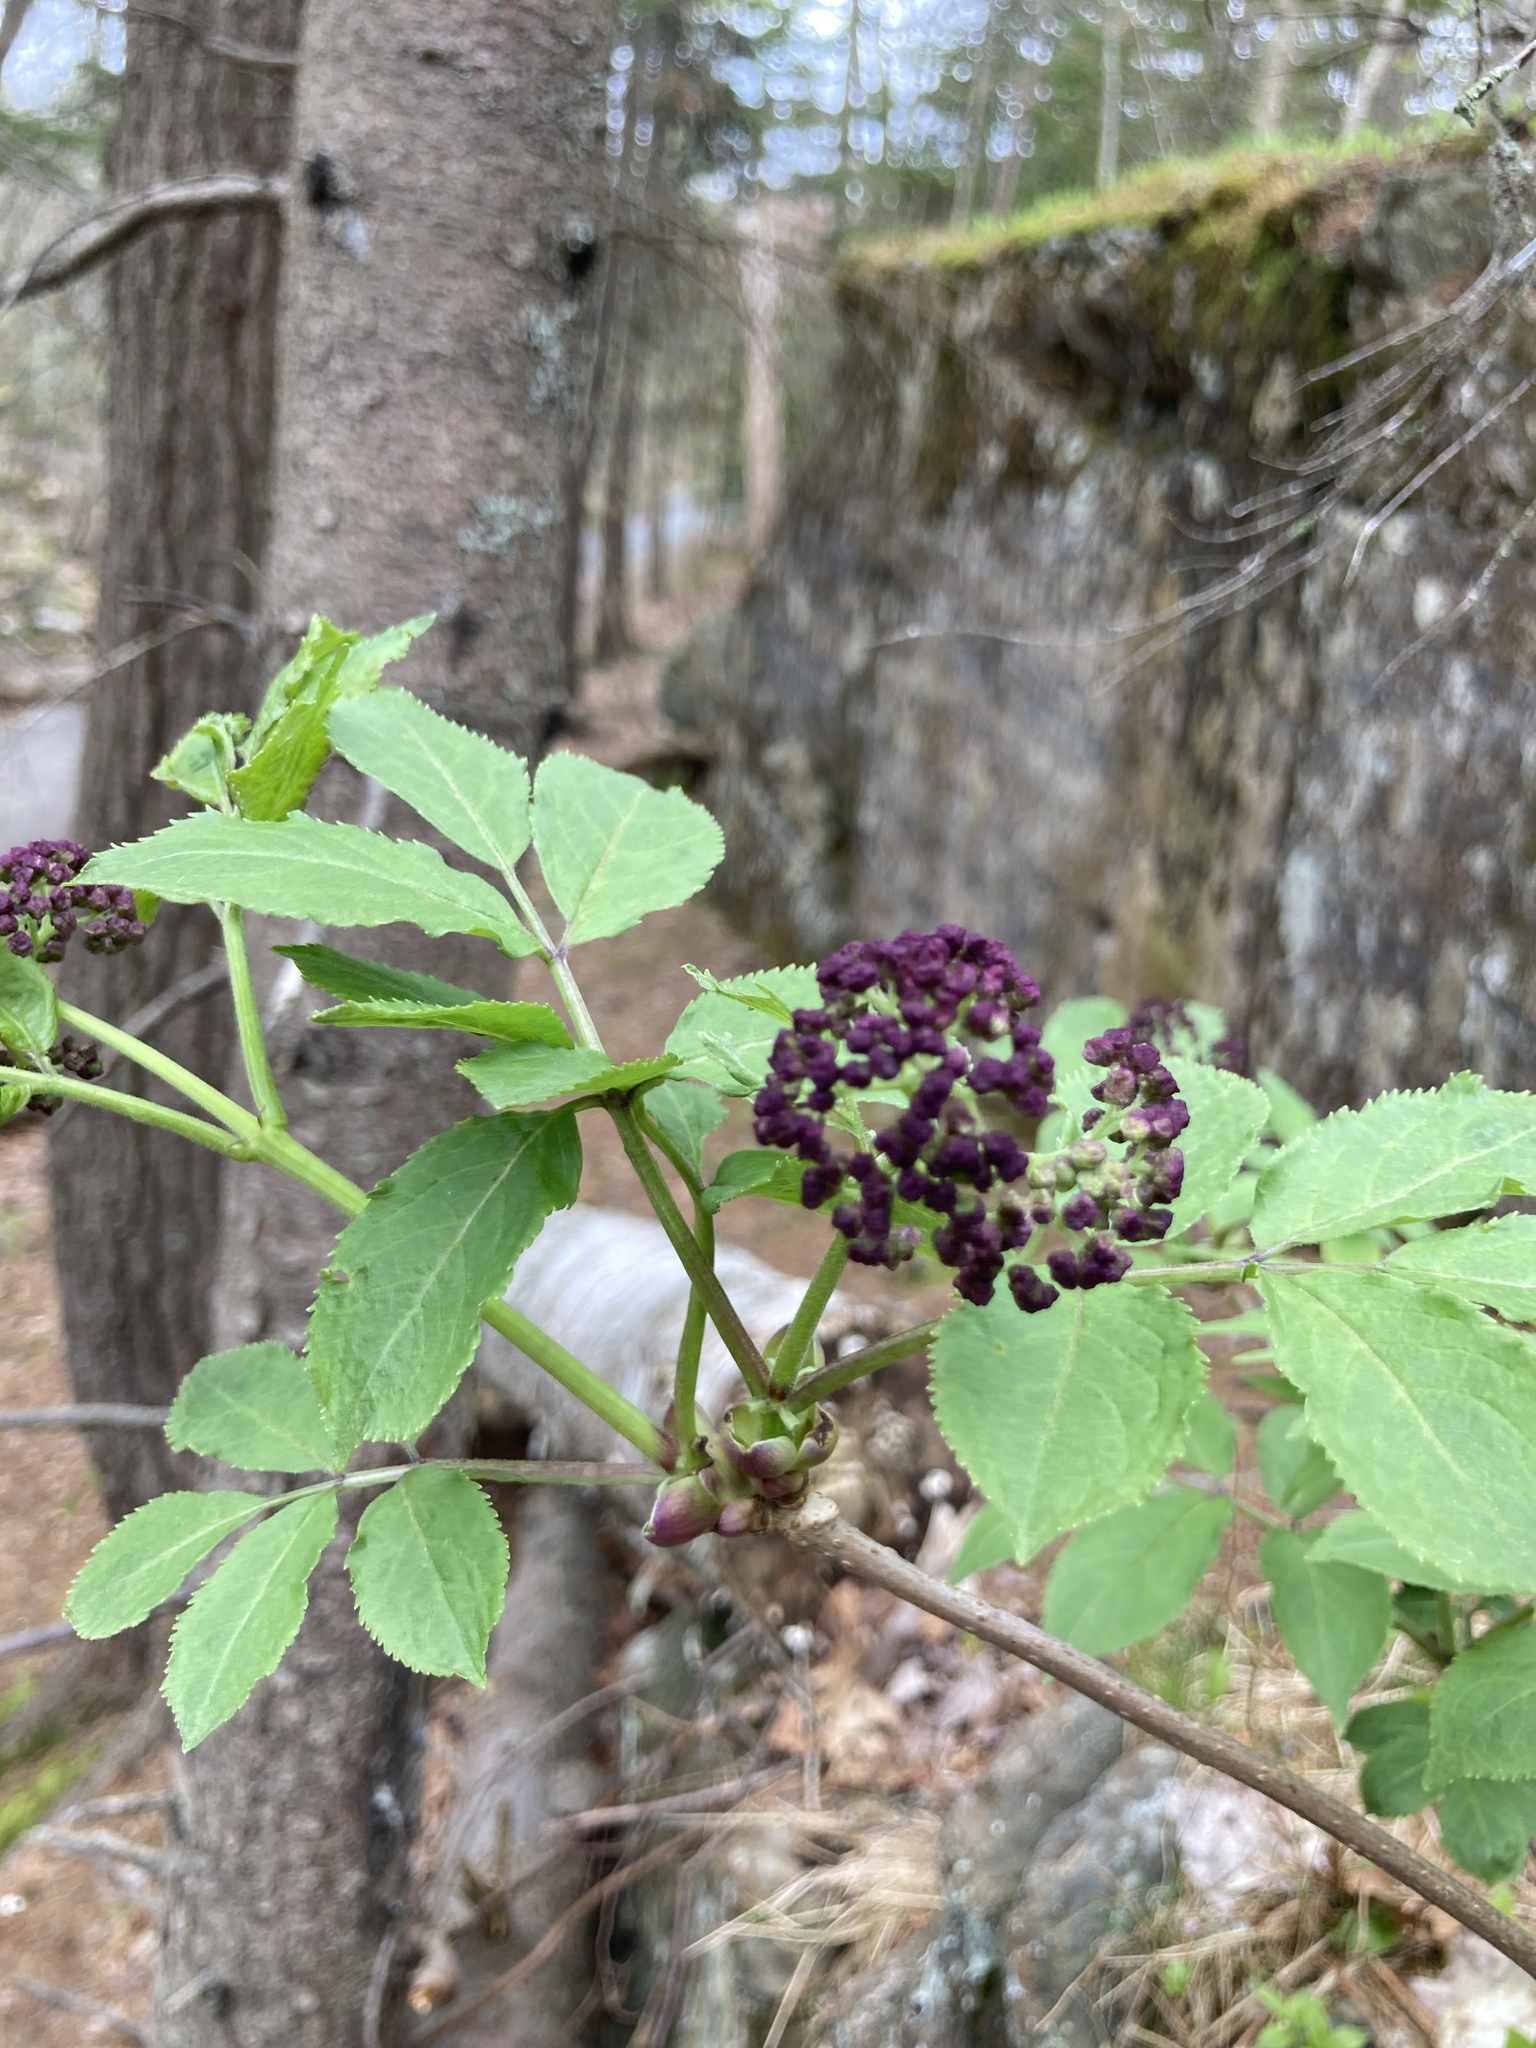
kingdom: Plantae
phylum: Tracheophyta
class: Magnoliopsida
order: Dipsacales
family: Viburnaceae
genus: Sambucus
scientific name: Sambucus racemosa
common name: Red-berried elder
